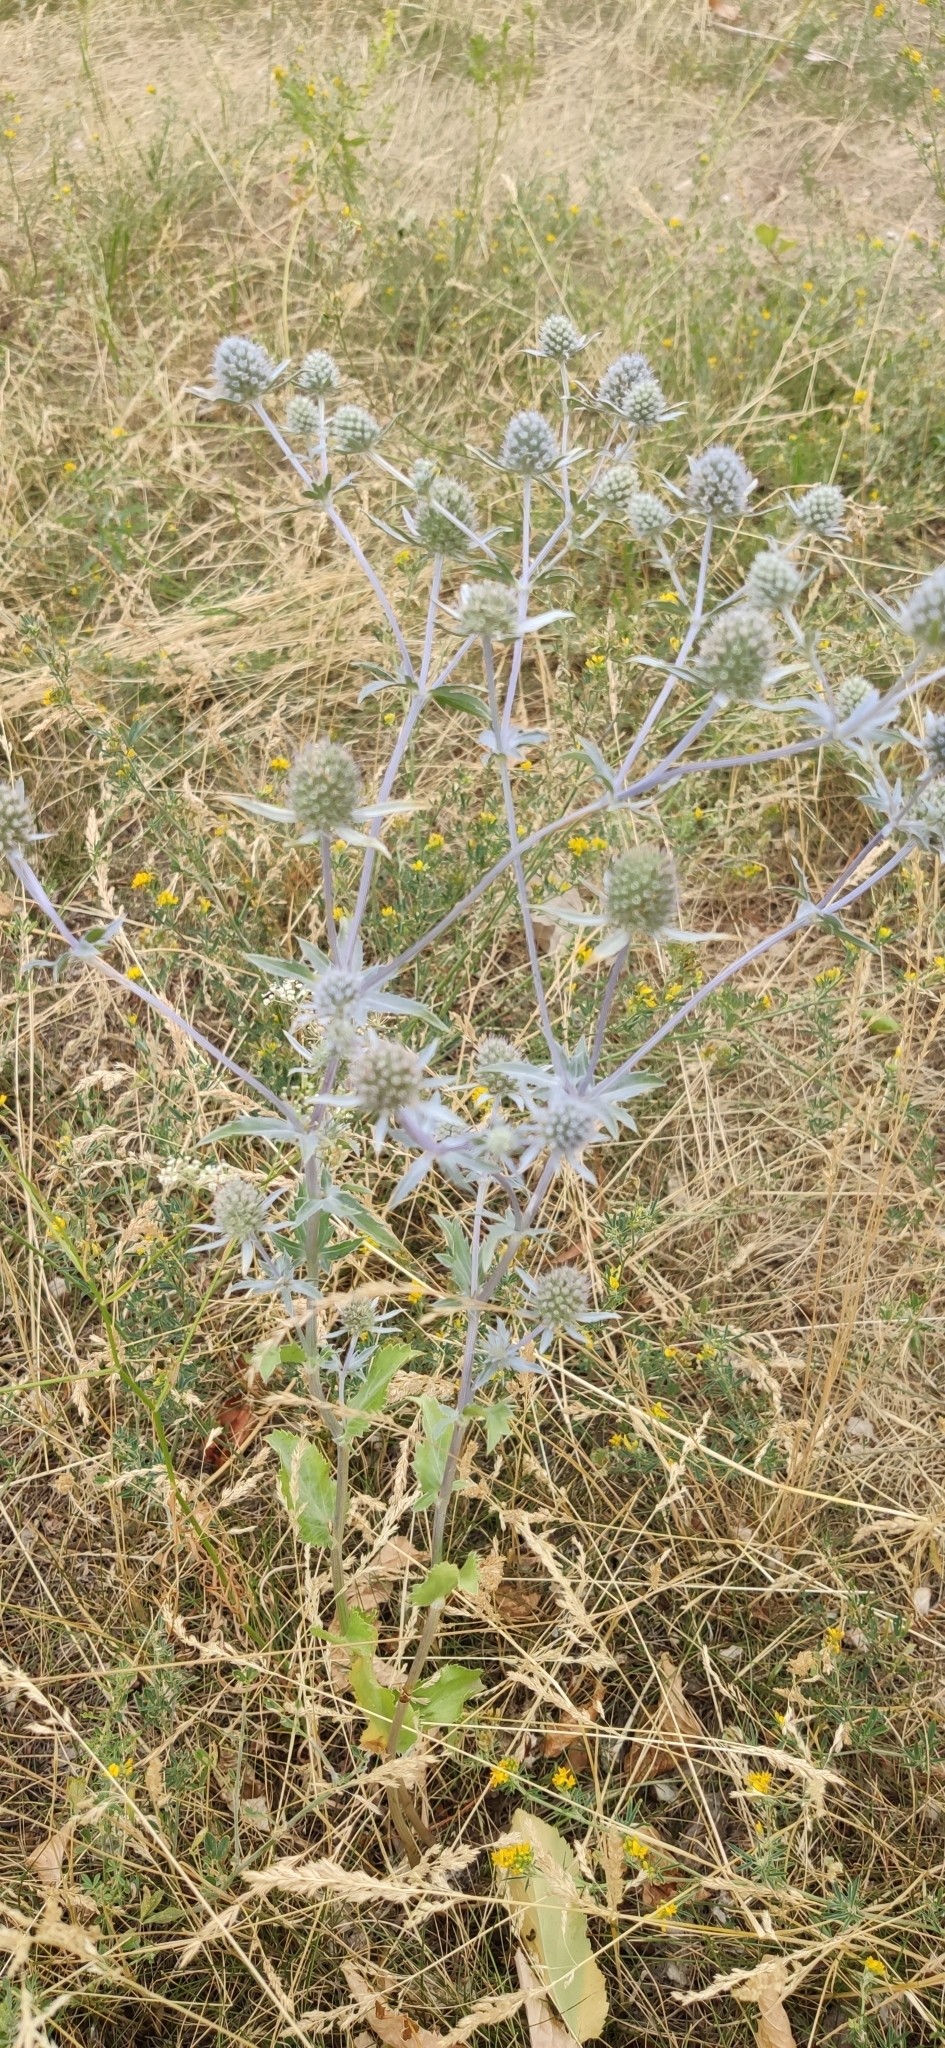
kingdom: Plantae
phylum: Tracheophyta
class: Magnoliopsida
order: Apiales
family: Apiaceae
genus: Eryngium
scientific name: Eryngium planum
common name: Blue eryngo
